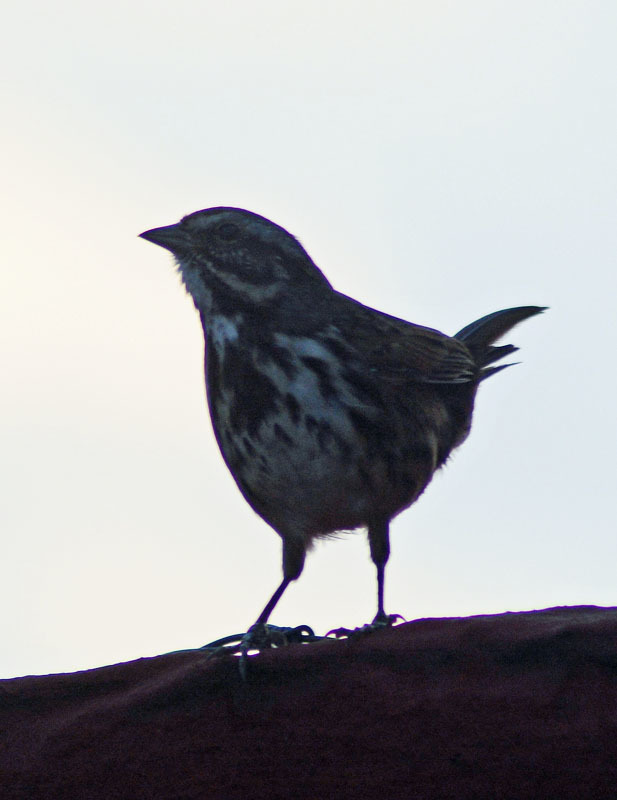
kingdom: Animalia
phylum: Chordata
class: Aves
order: Passeriformes
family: Passerellidae
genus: Melospiza
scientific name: Melospiza melodia
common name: Song sparrow
